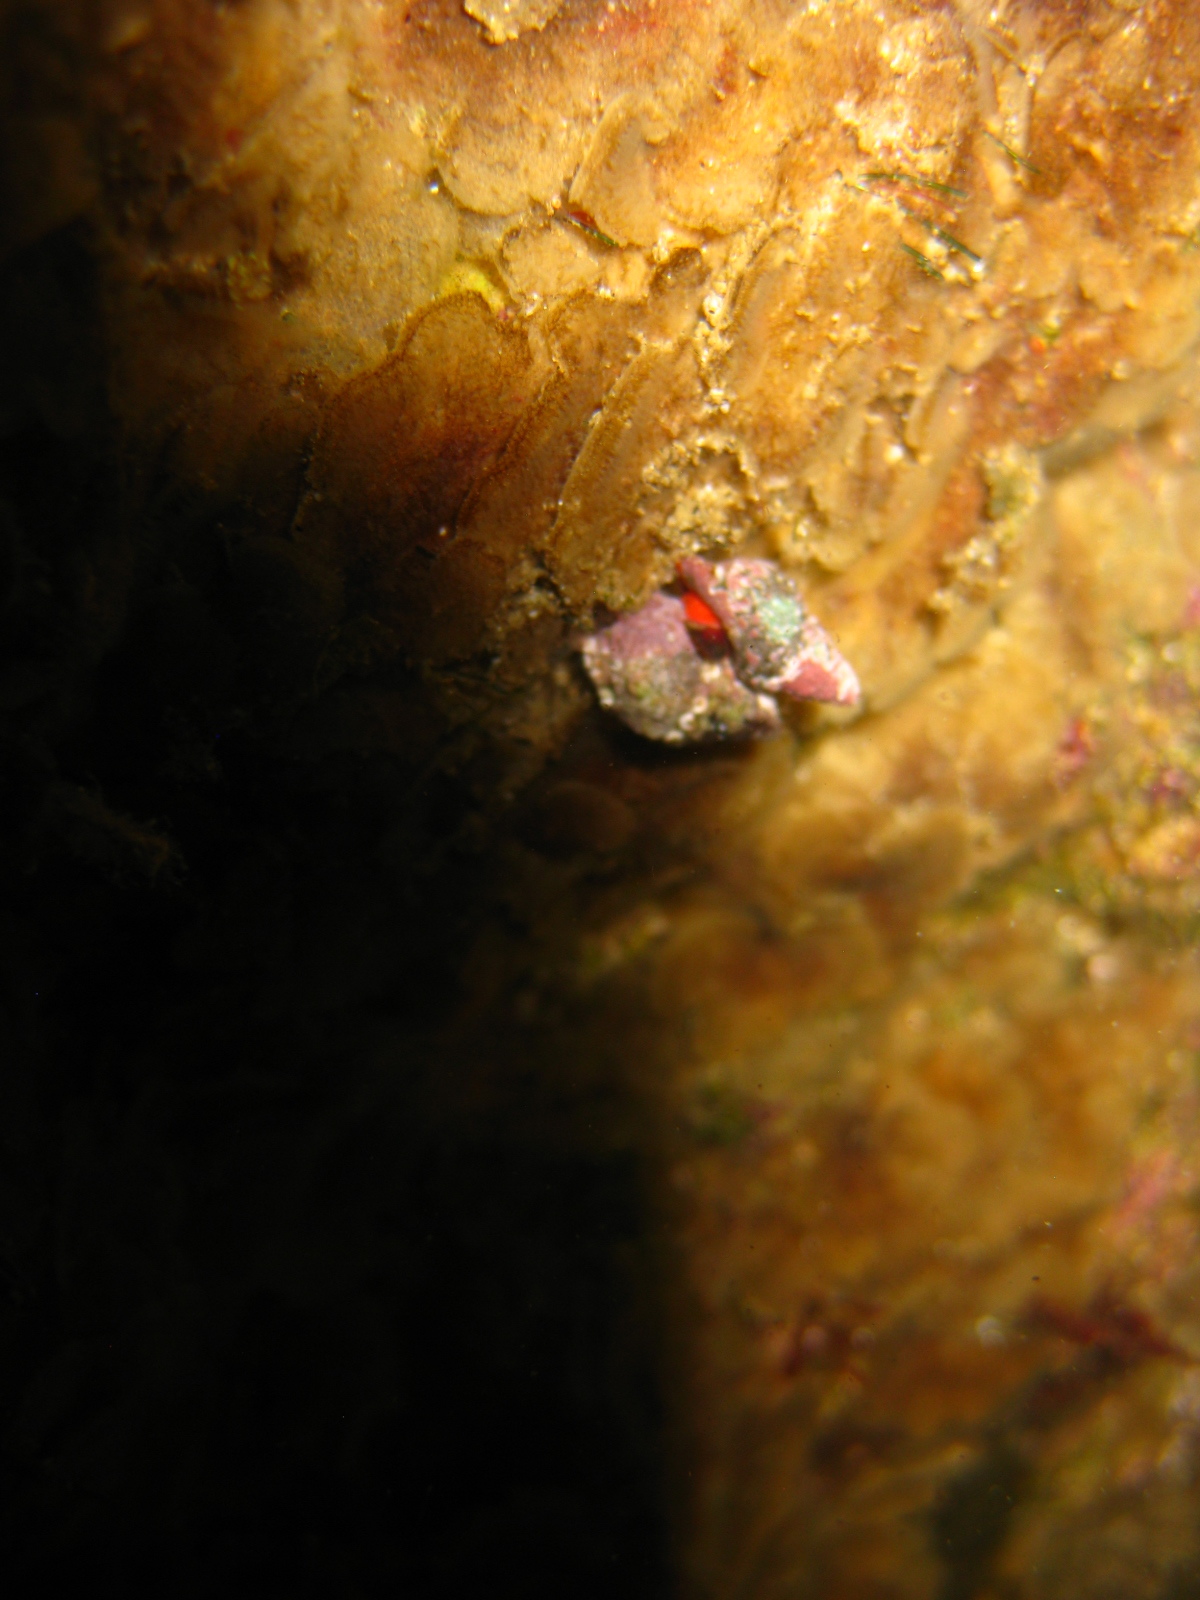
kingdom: Animalia
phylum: Mollusca
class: Gastropoda
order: Neogastropoda
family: Fasciolariidae
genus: Taron
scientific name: Taron dubius
